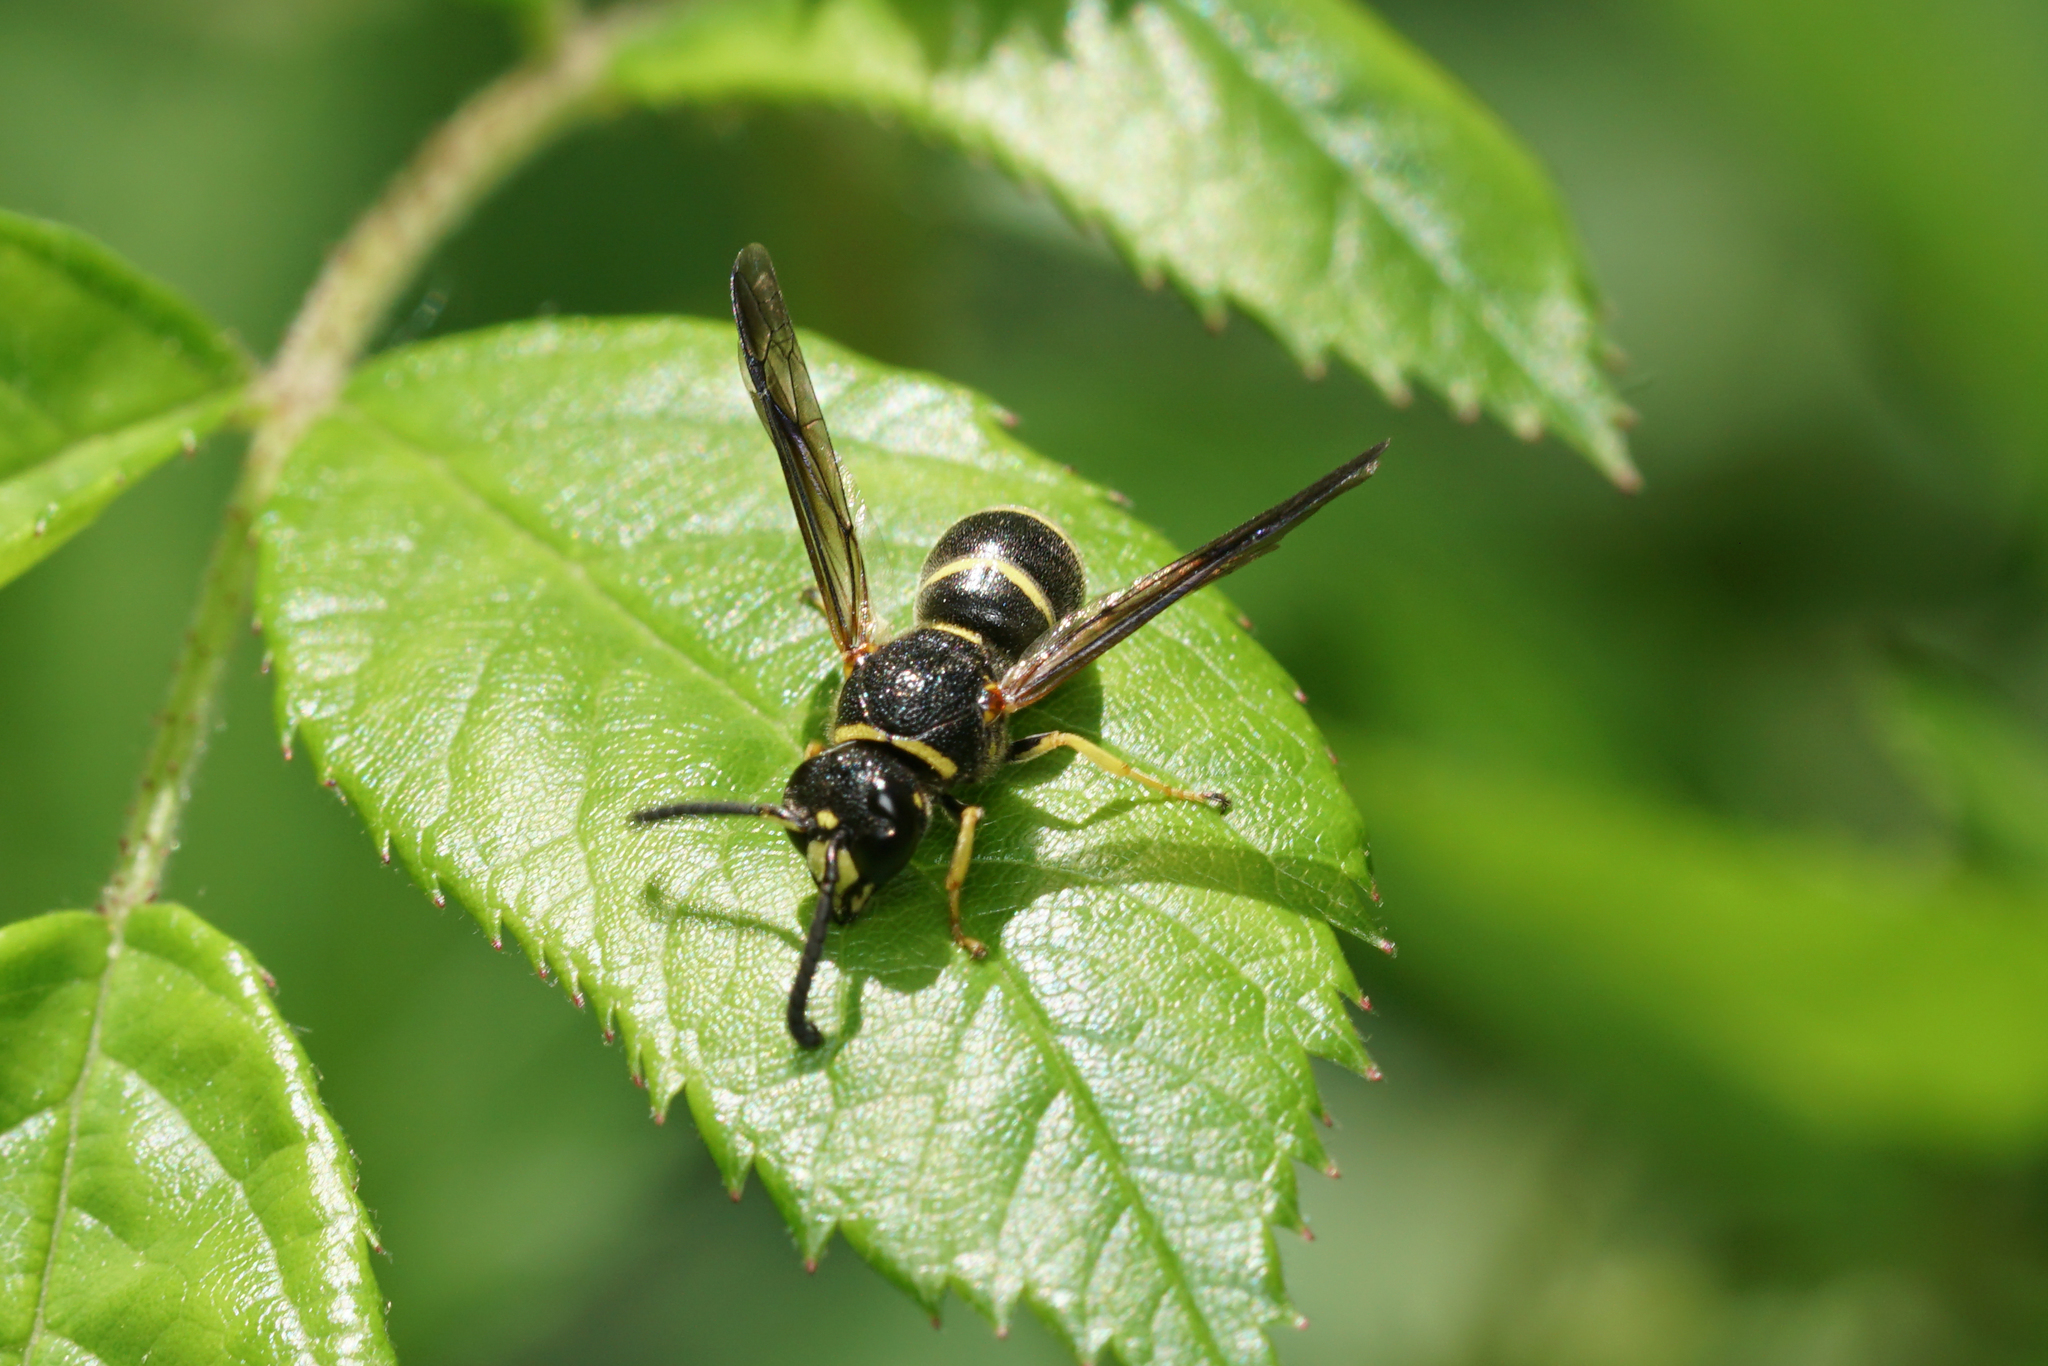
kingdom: Animalia
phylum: Arthropoda
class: Insecta
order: Hymenoptera
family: Eumenidae
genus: Euodynerus
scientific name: Euodynerus foraminatus
